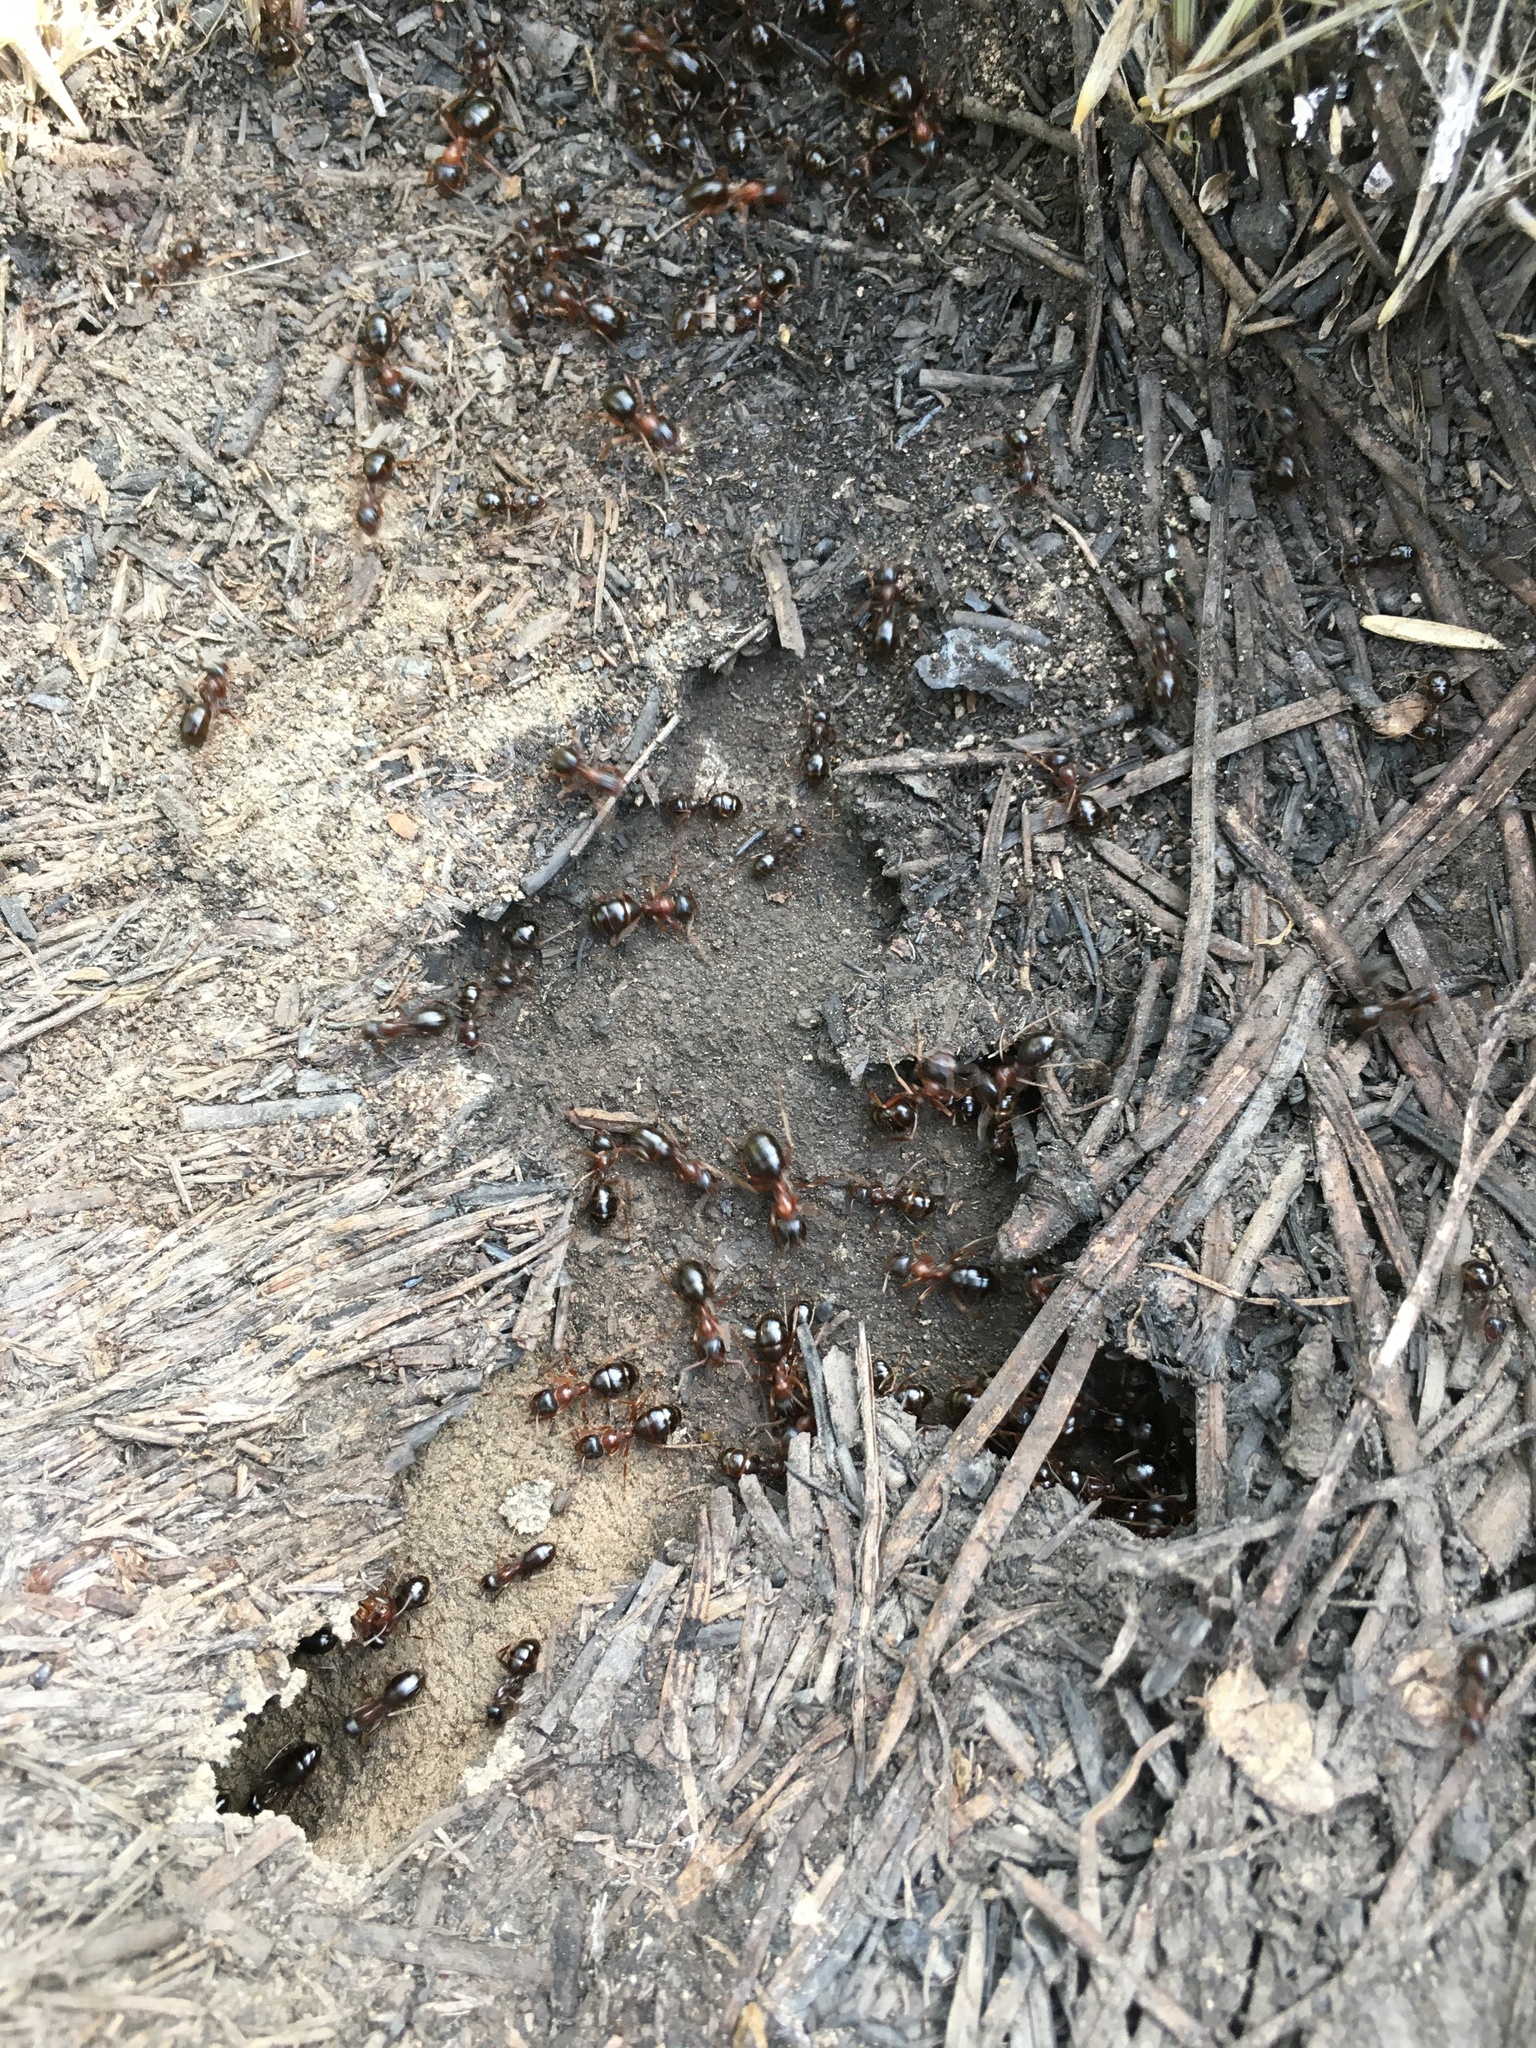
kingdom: Animalia
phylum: Arthropoda
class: Insecta
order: Hymenoptera
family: Formicidae
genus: Formica
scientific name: Formica subpolita
